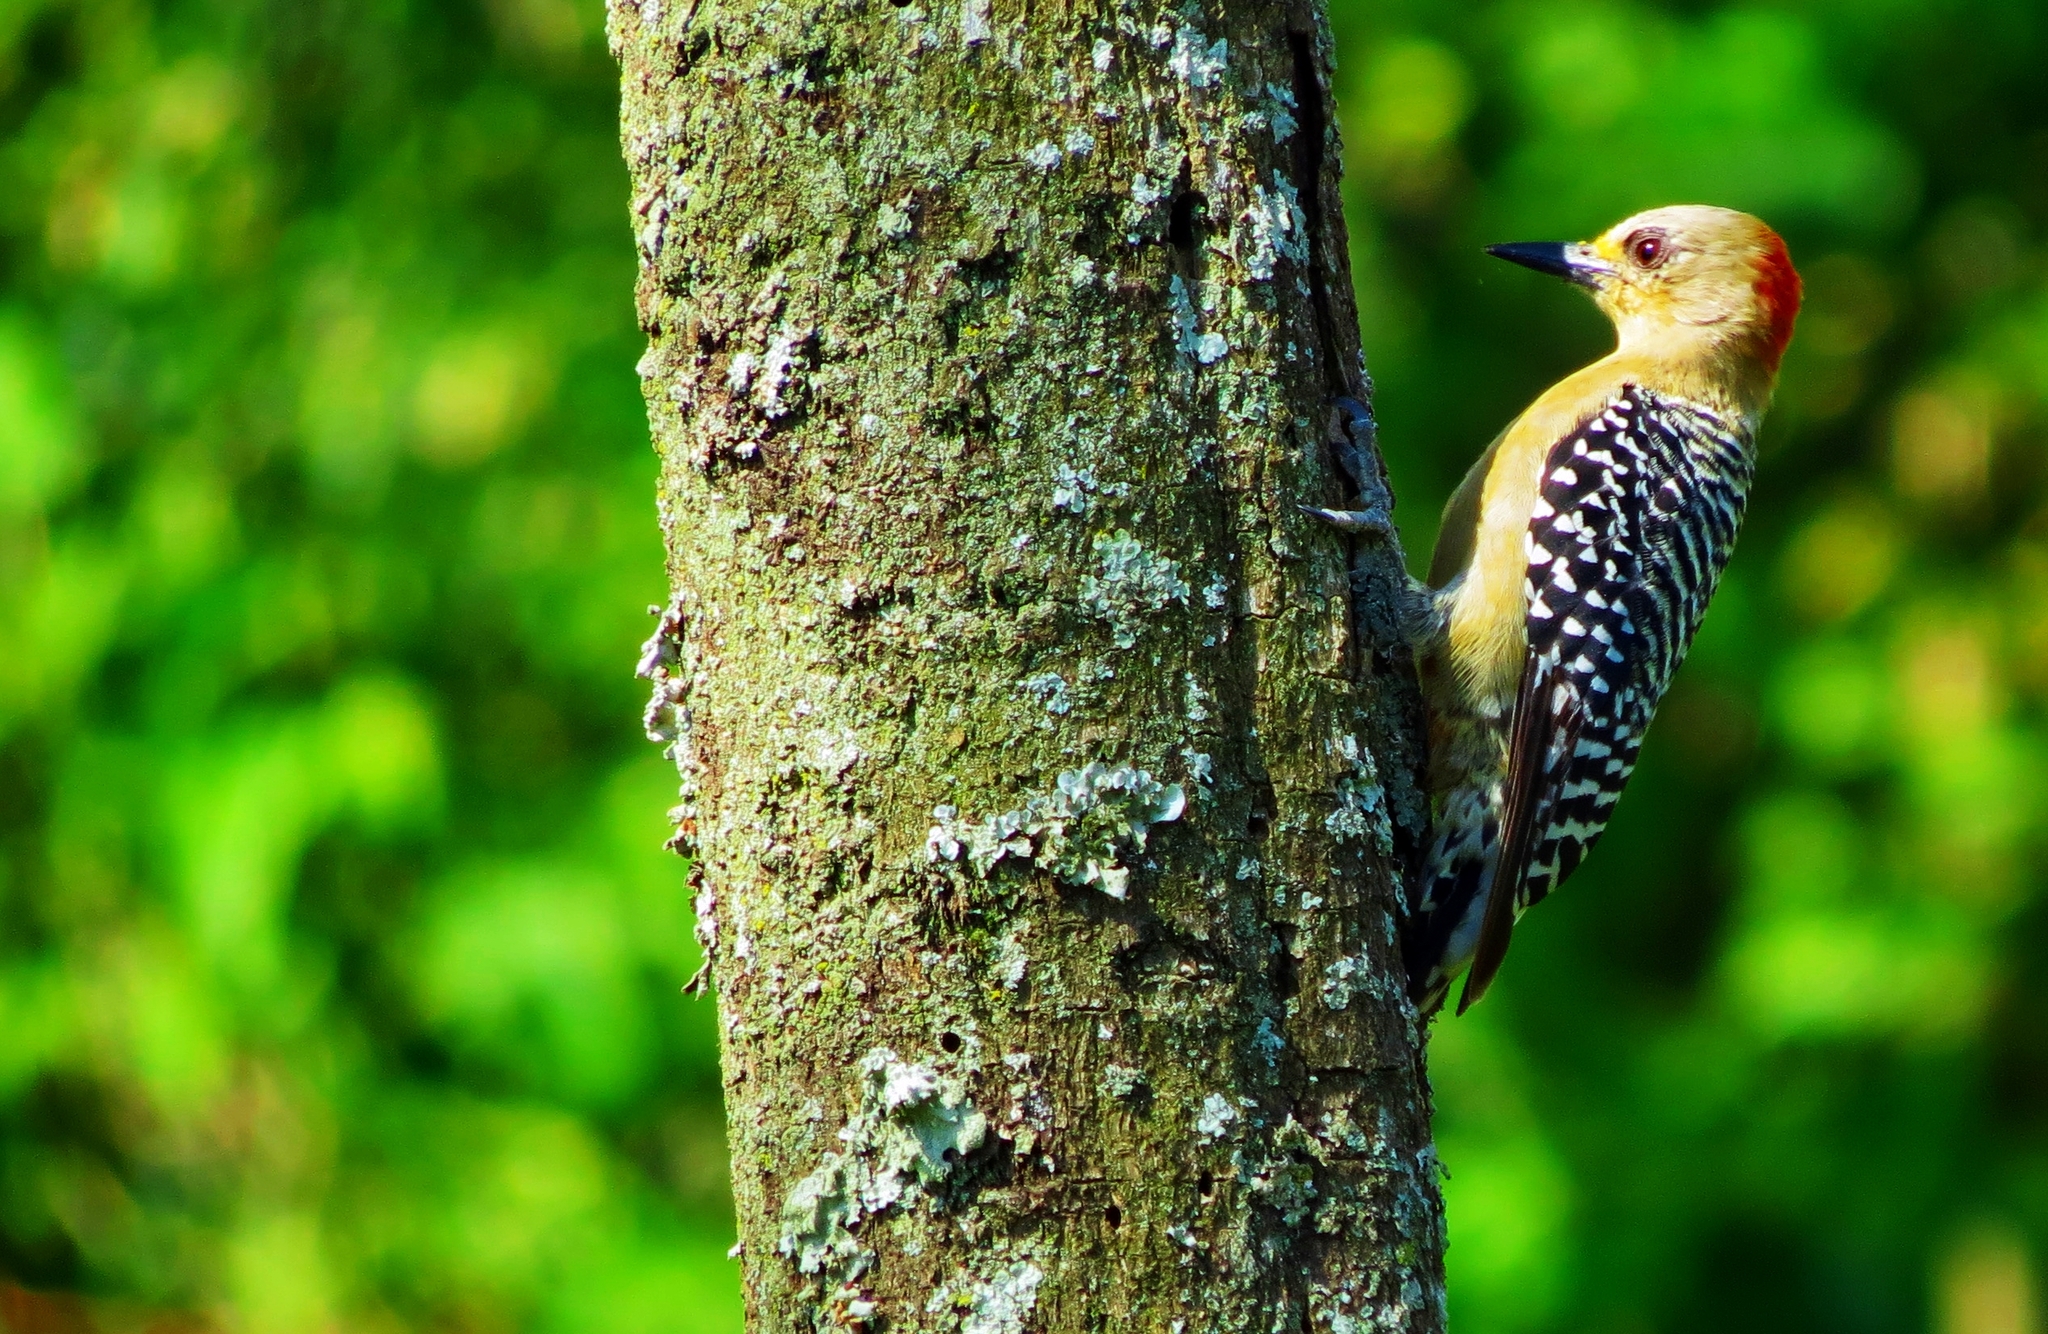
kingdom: Animalia
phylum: Chordata
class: Aves
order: Piciformes
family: Picidae
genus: Melanerpes
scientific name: Melanerpes rubricapillus
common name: Red-crowned woodpecker
